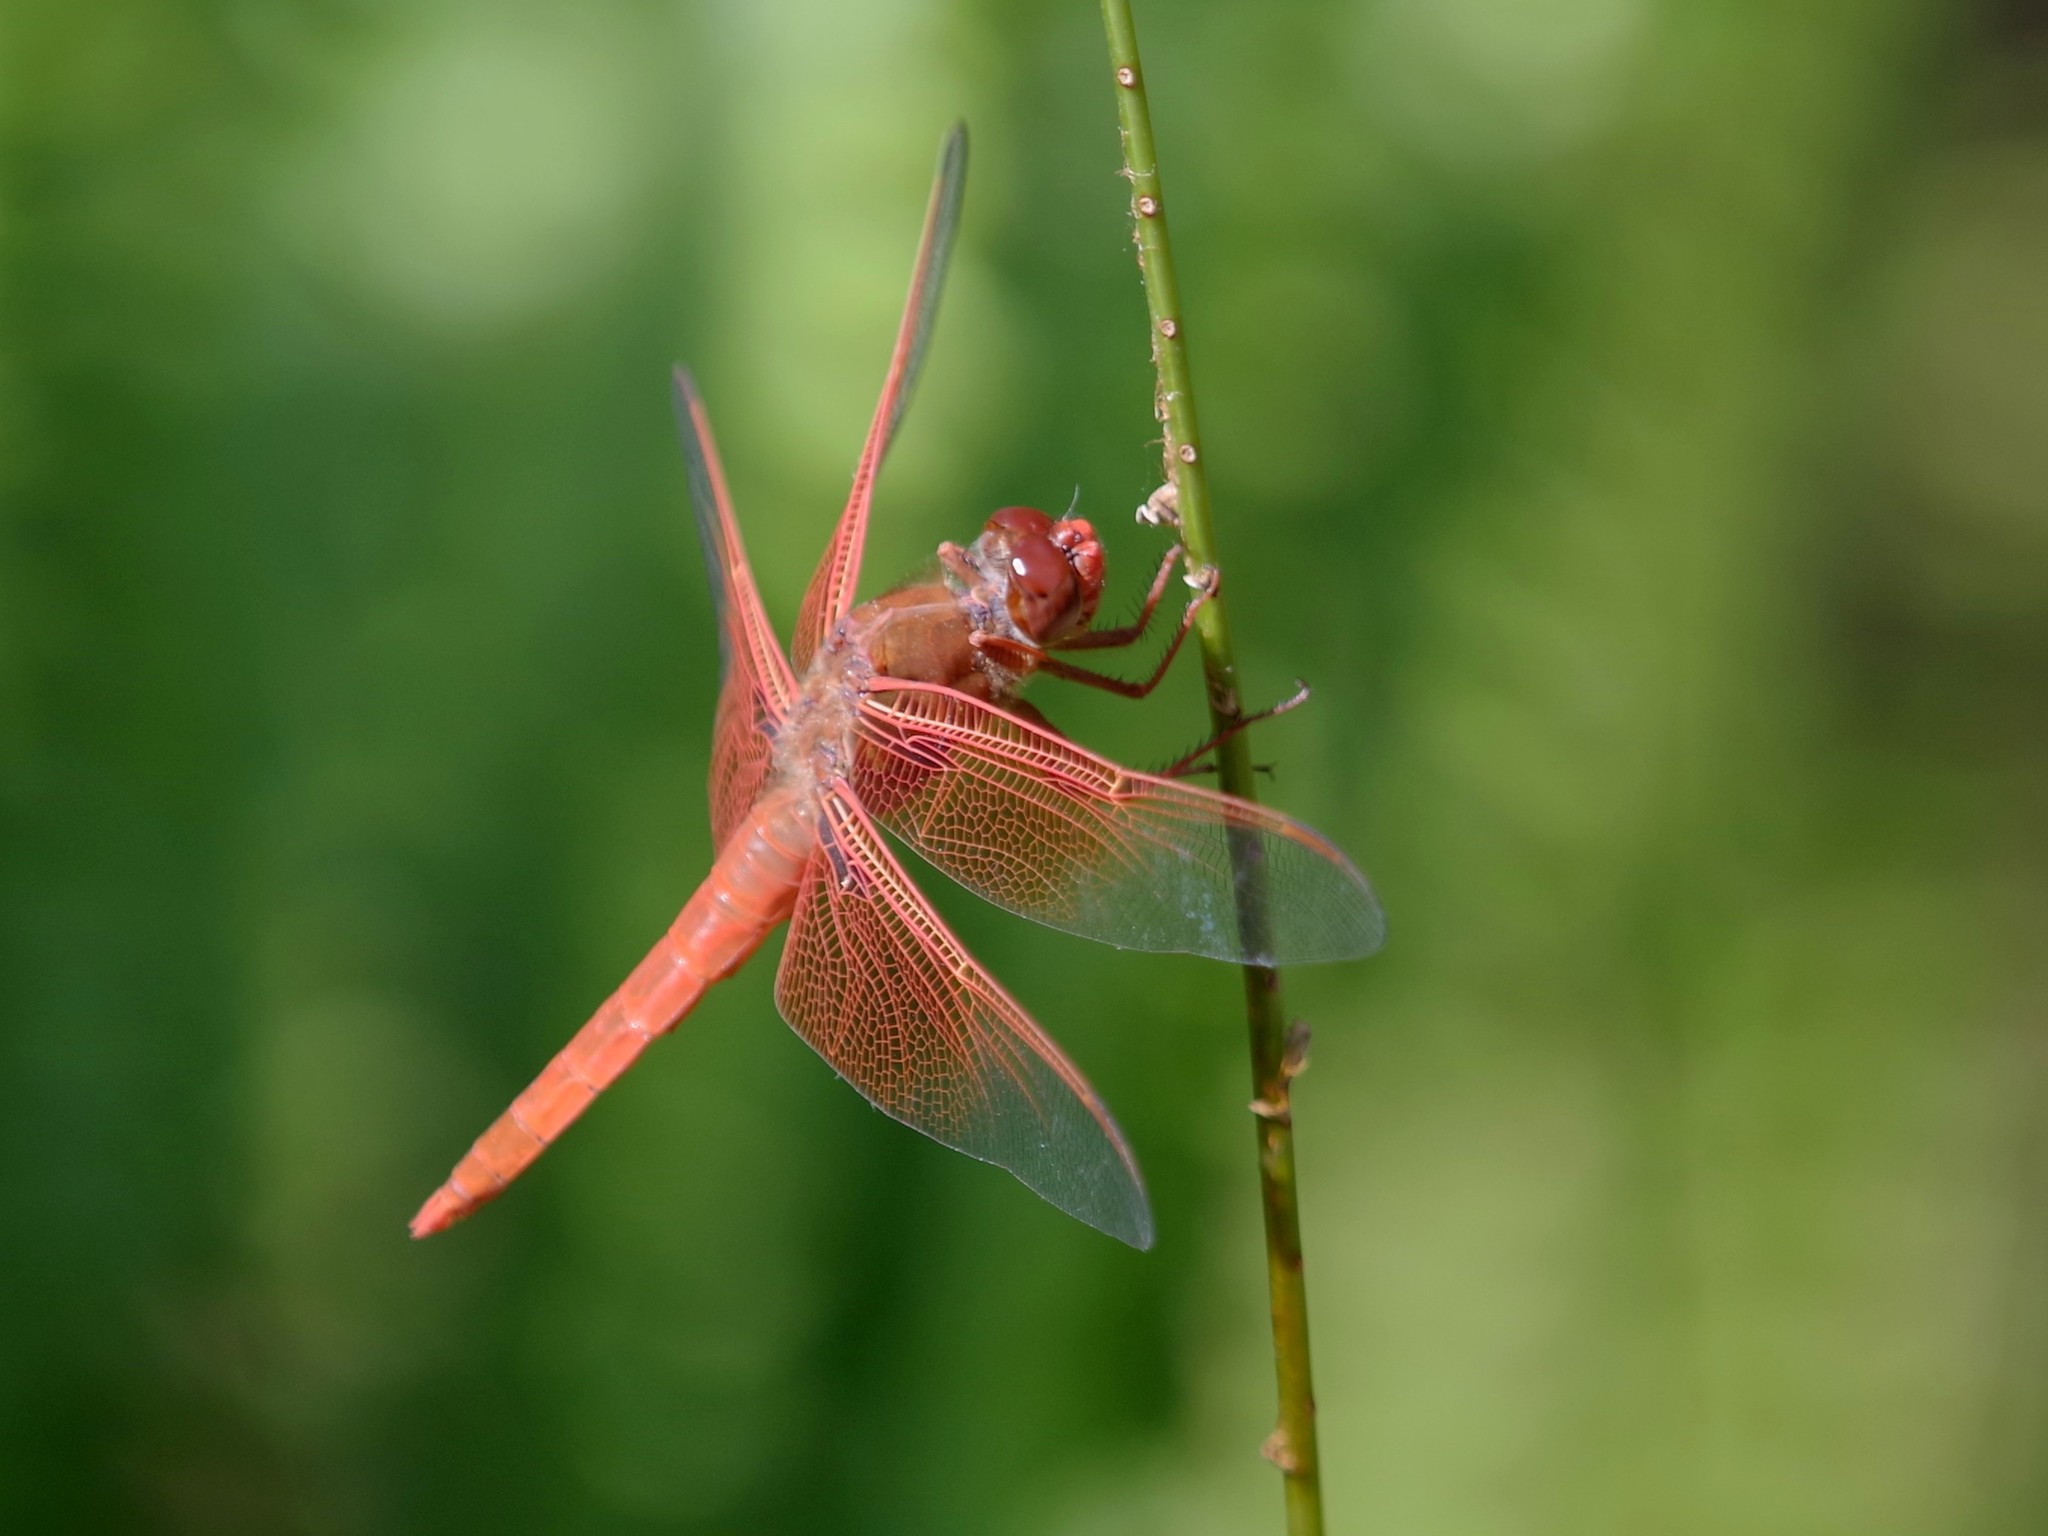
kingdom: Animalia
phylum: Arthropoda
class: Insecta
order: Odonata
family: Libellulidae
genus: Libellula
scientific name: Libellula saturata
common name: Flame skimmer
